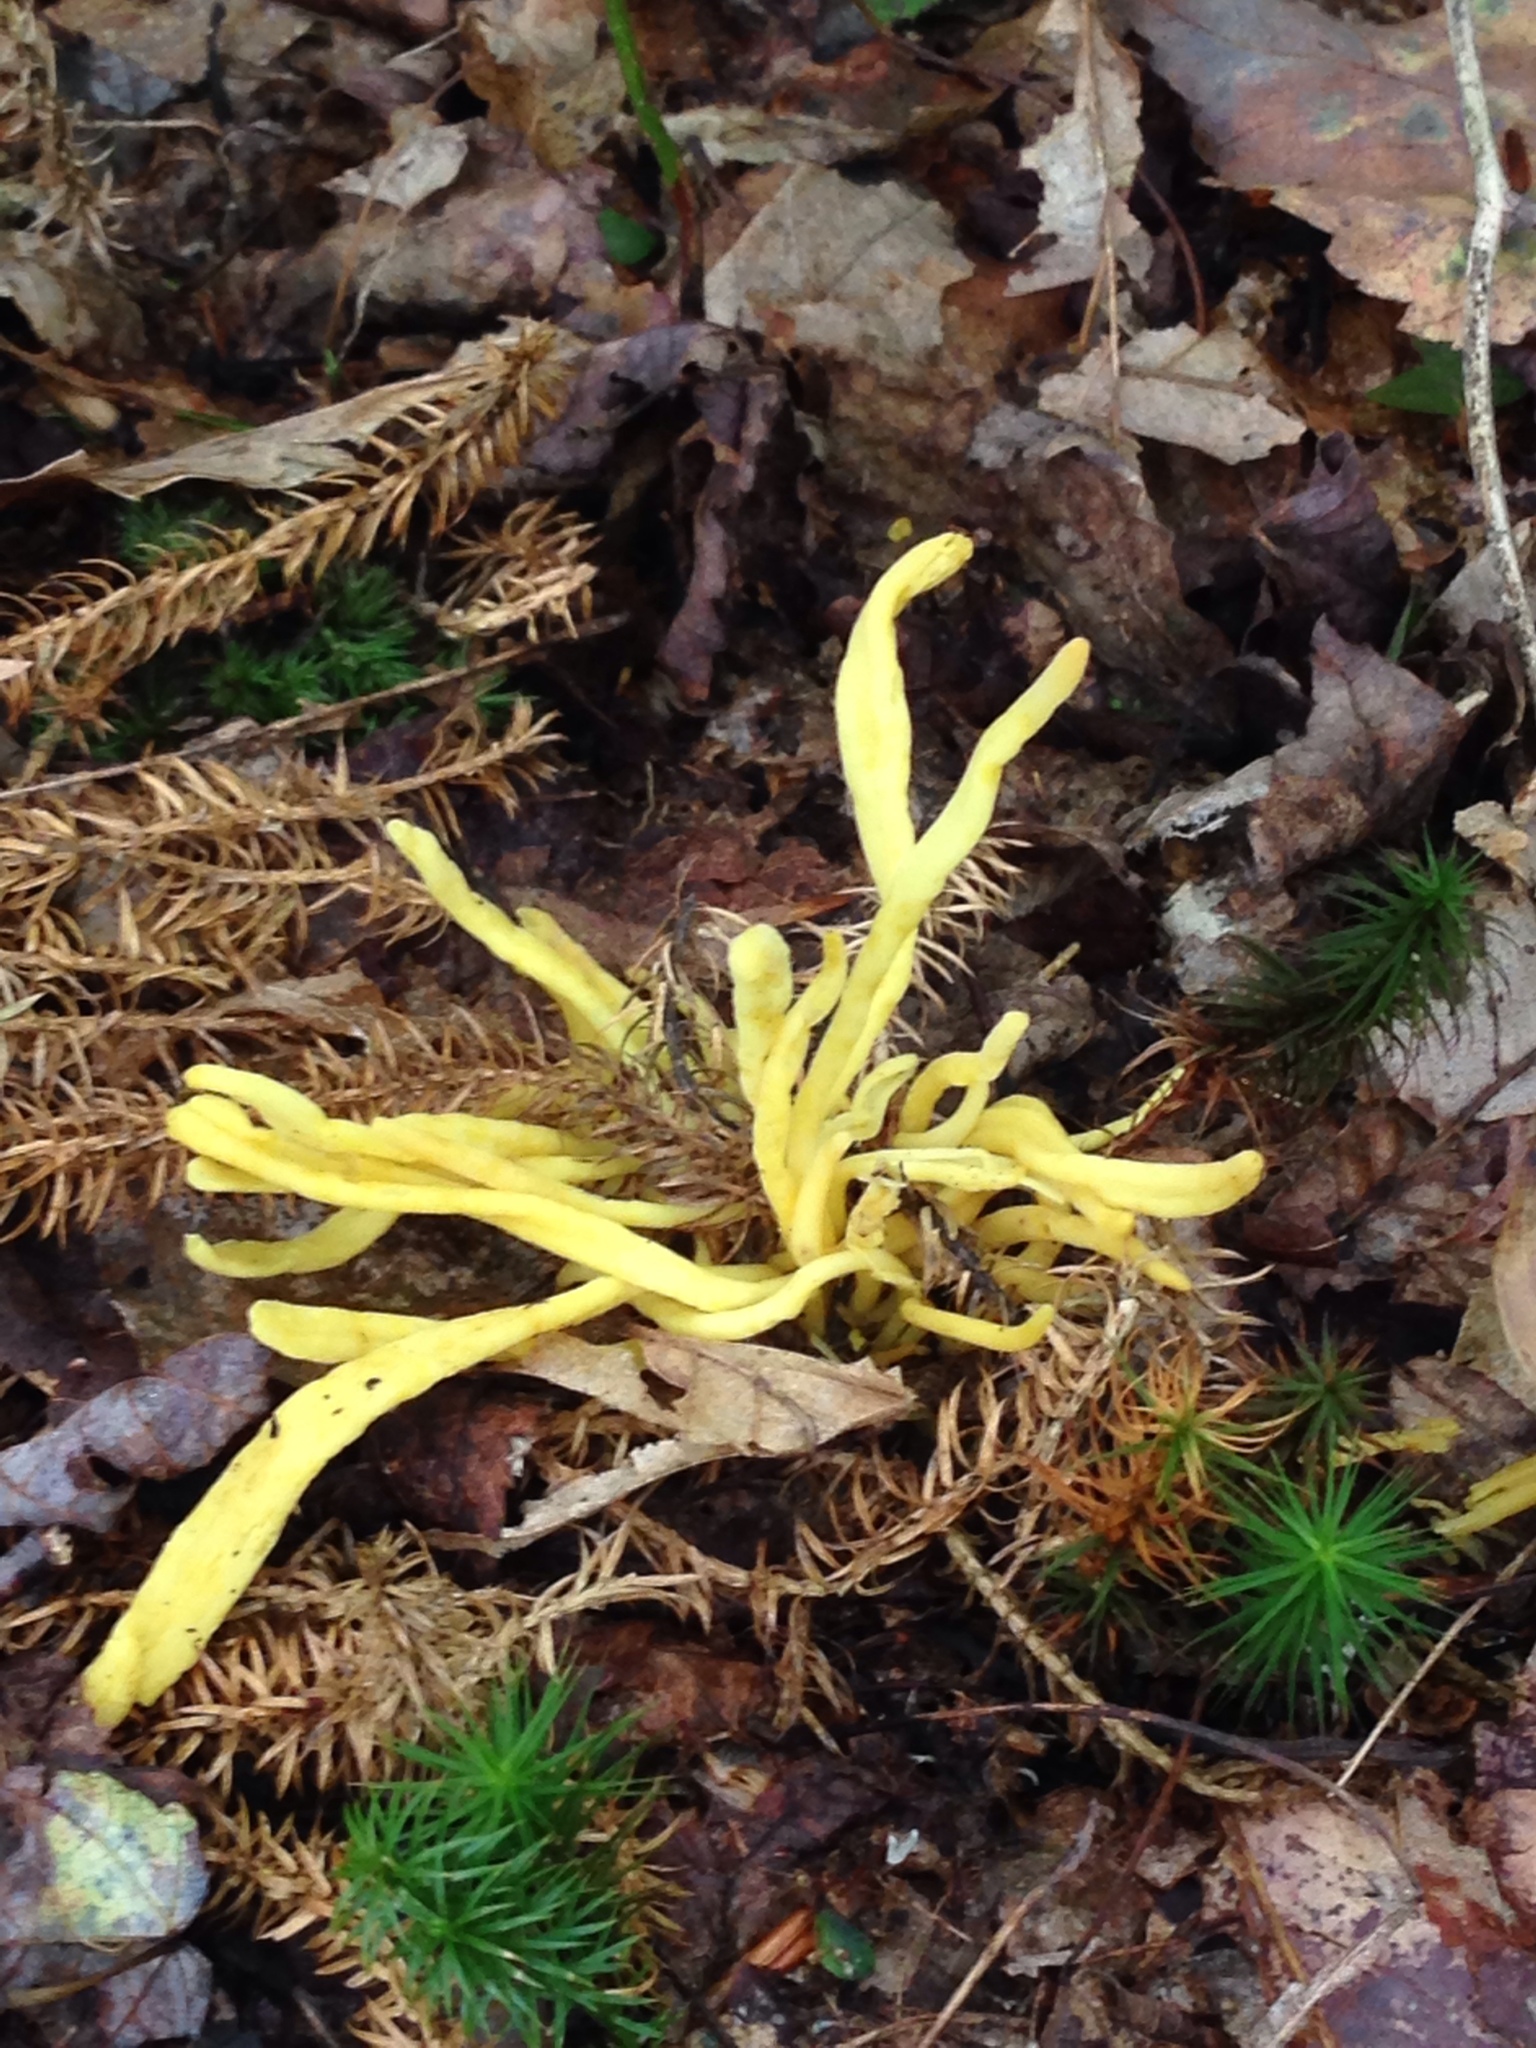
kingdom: Fungi
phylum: Basidiomycota
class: Agaricomycetes
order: Agaricales
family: Clavariaceae
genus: Clavulinopsis
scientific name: Clavulinopsis fusiformis
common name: Golden spindles
